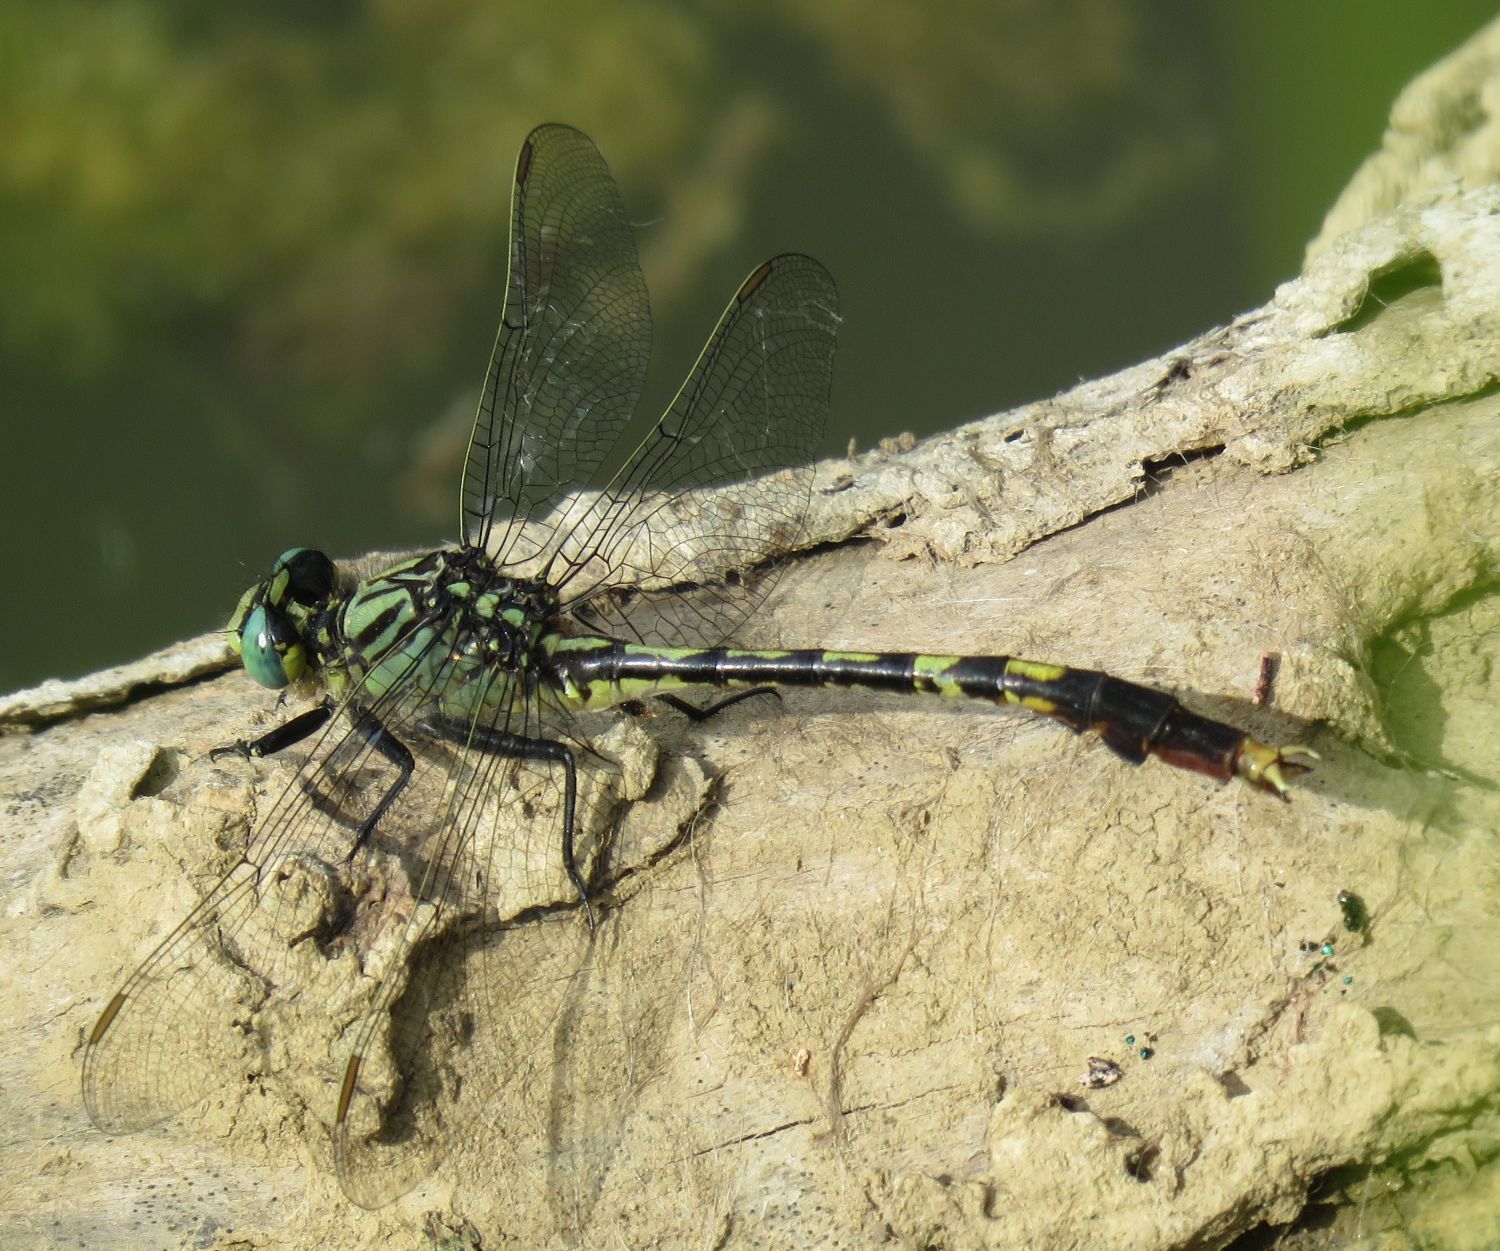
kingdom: Animalia
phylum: Arthropoda
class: Insecta
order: Odonata
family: Gomphidae
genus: Arigomphus
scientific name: Arigomphus villosipes
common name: Unicorn clubtail
